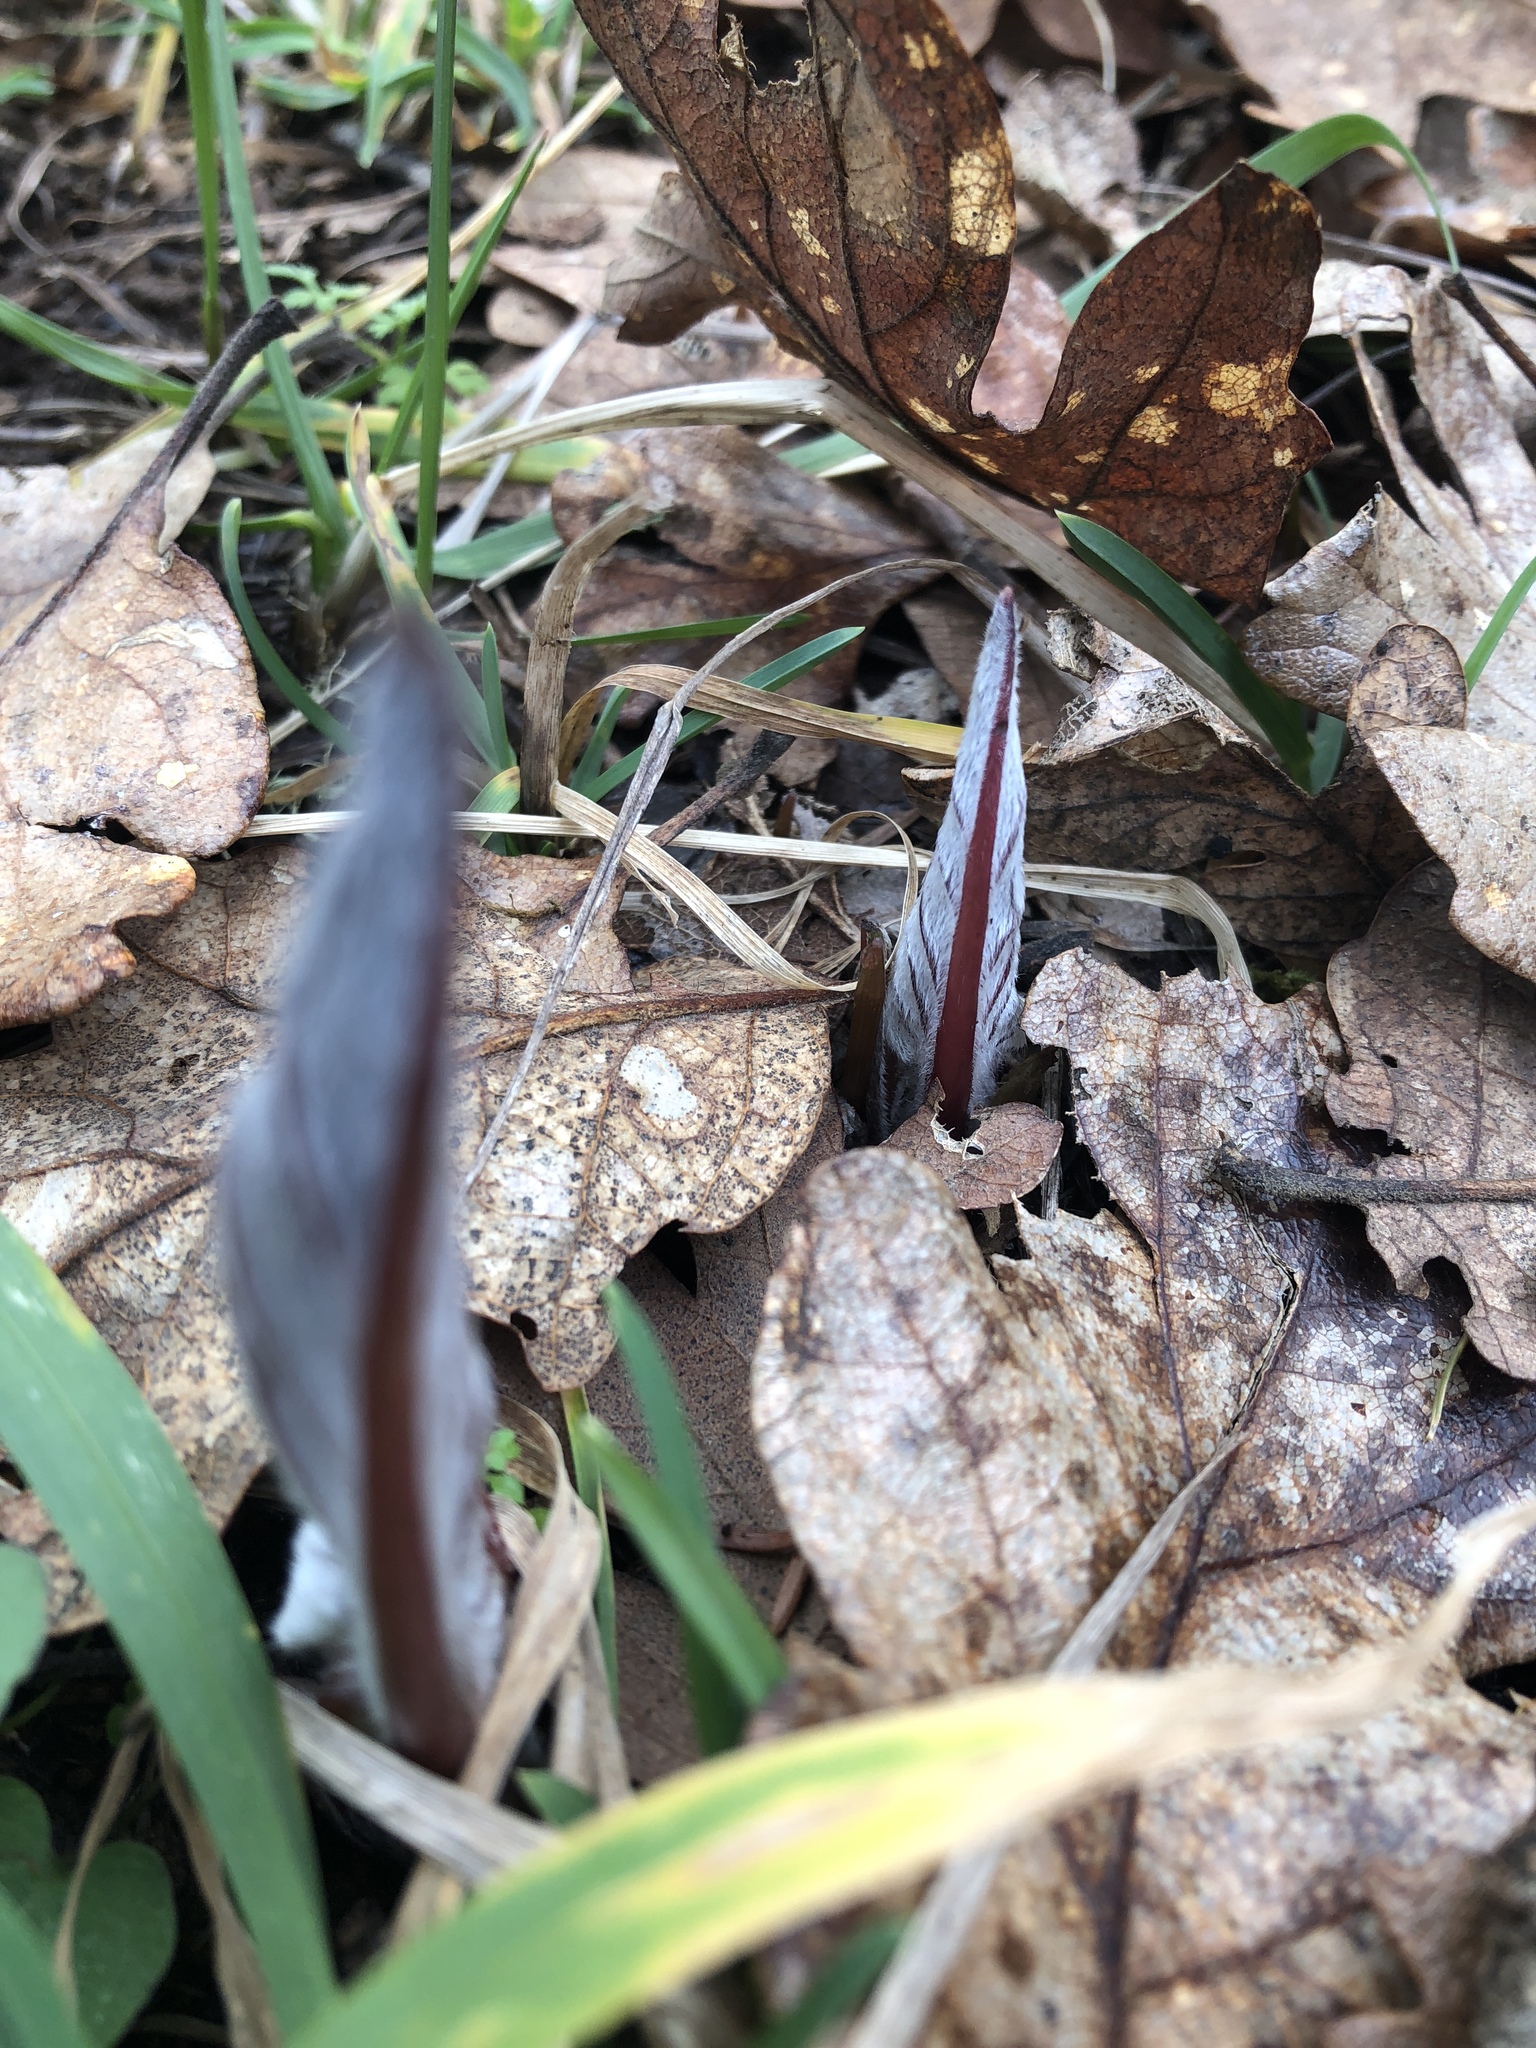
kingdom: Plantae
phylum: Tracheophyta
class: Magnoliopsida
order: Boraginales
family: Boraginaceae
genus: Adelinia
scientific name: Adelinia grande
